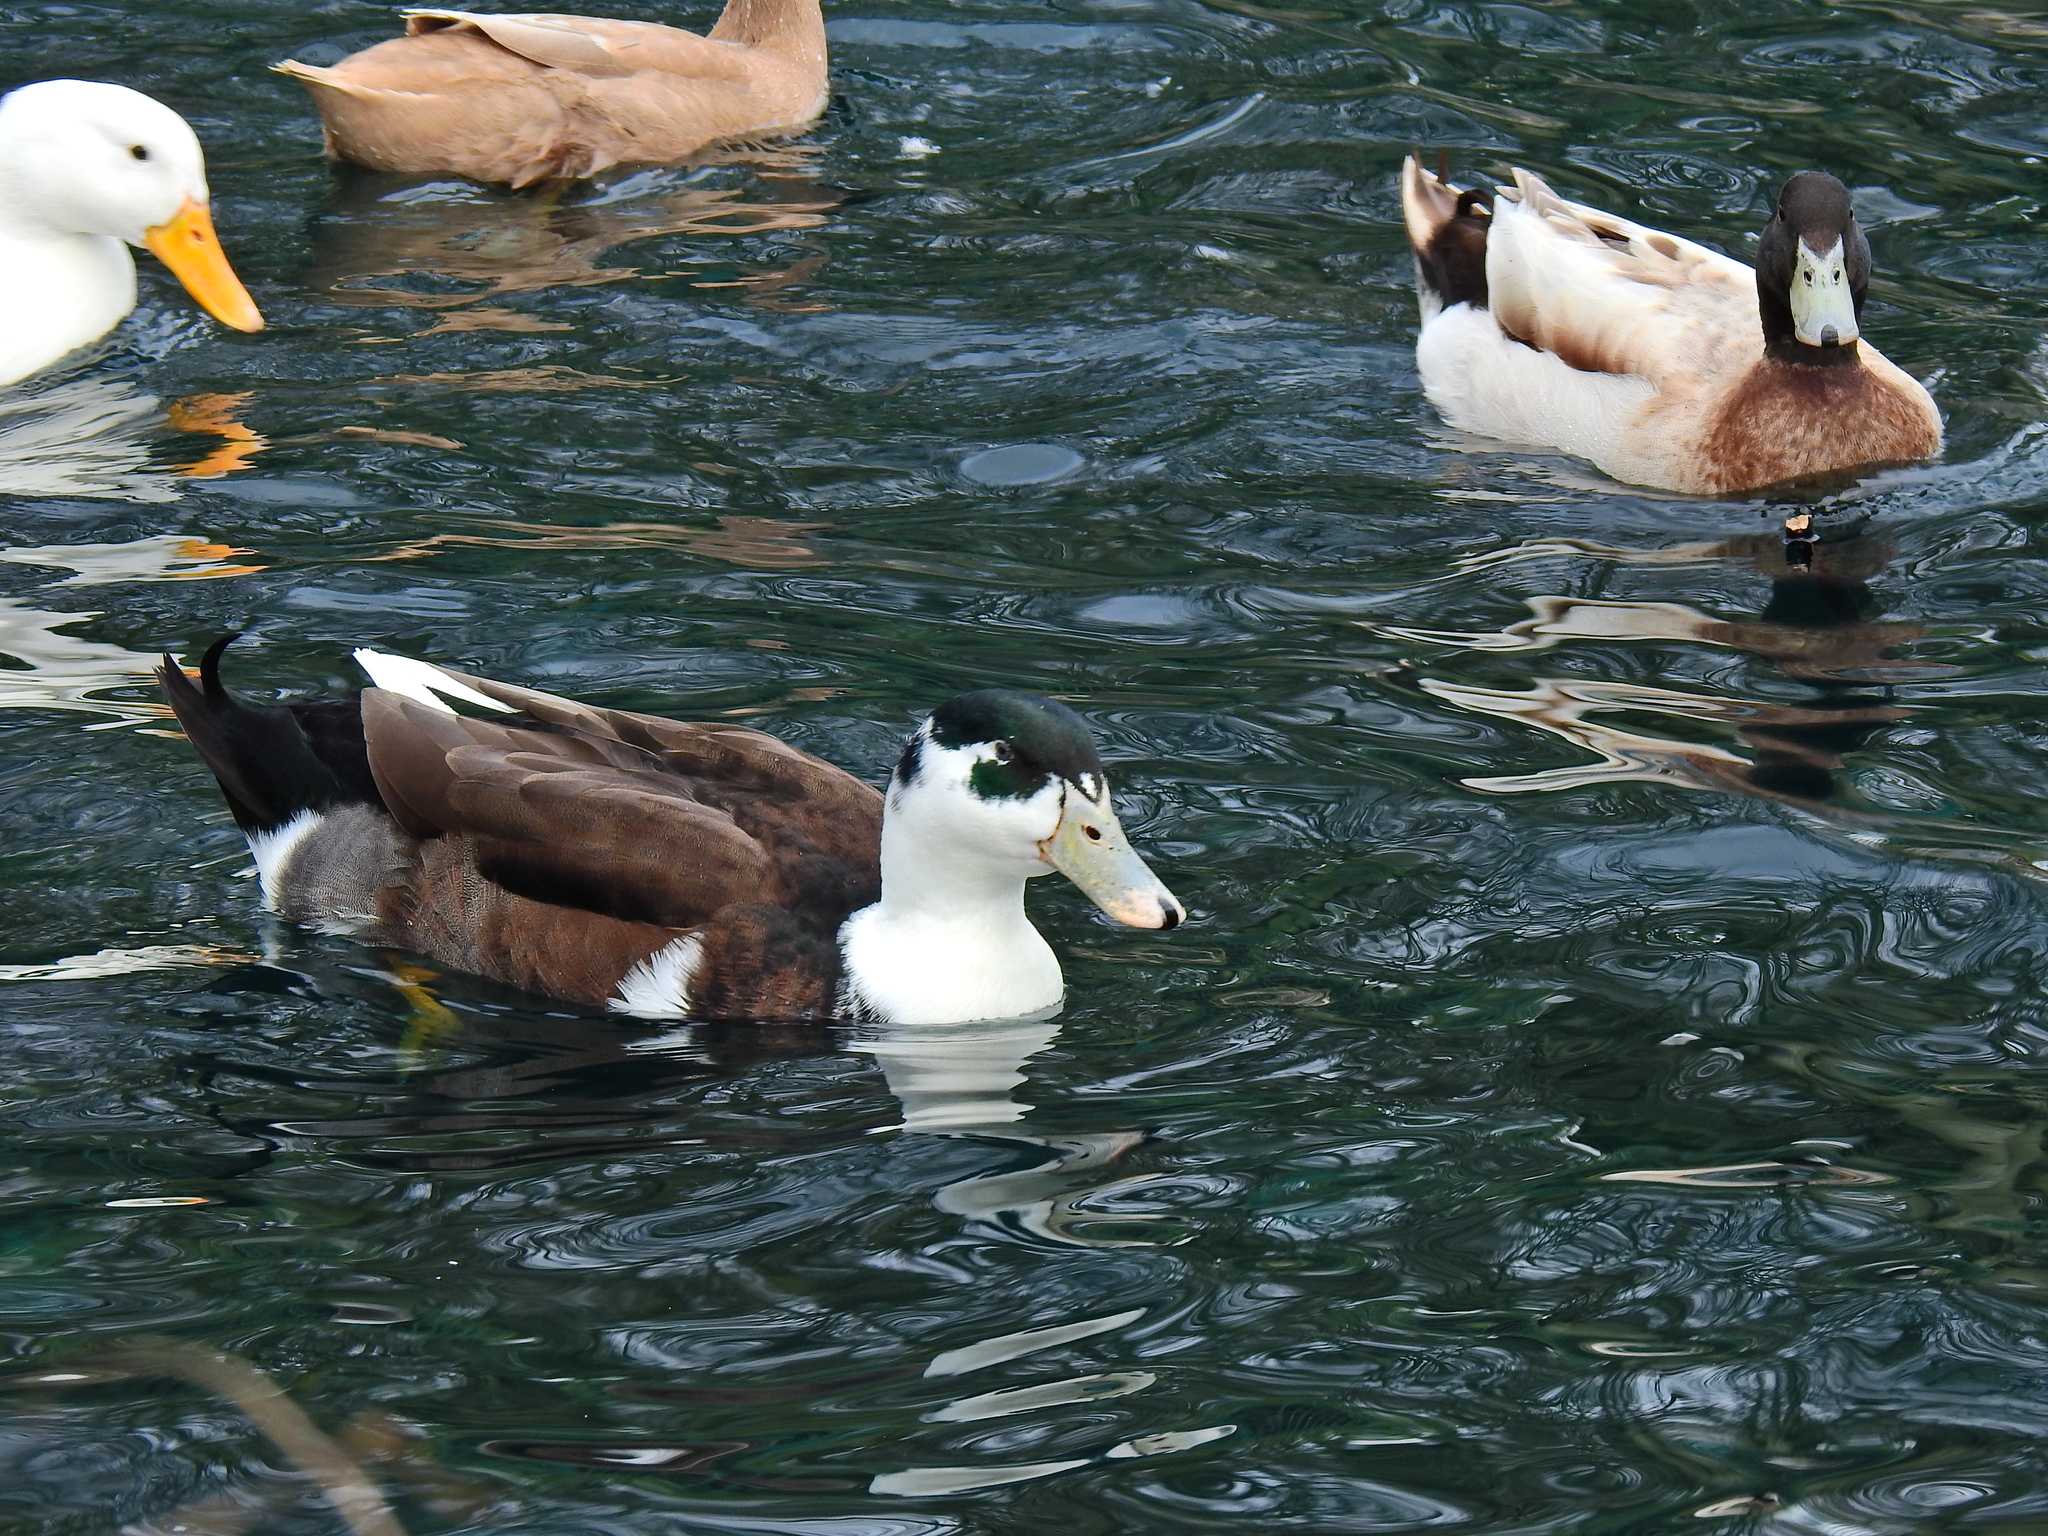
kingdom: Animalia
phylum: Chordata
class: Aves
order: Anseriformes
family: Anatidae
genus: Anas
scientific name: Anas platyrhynchos
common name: Mallard
